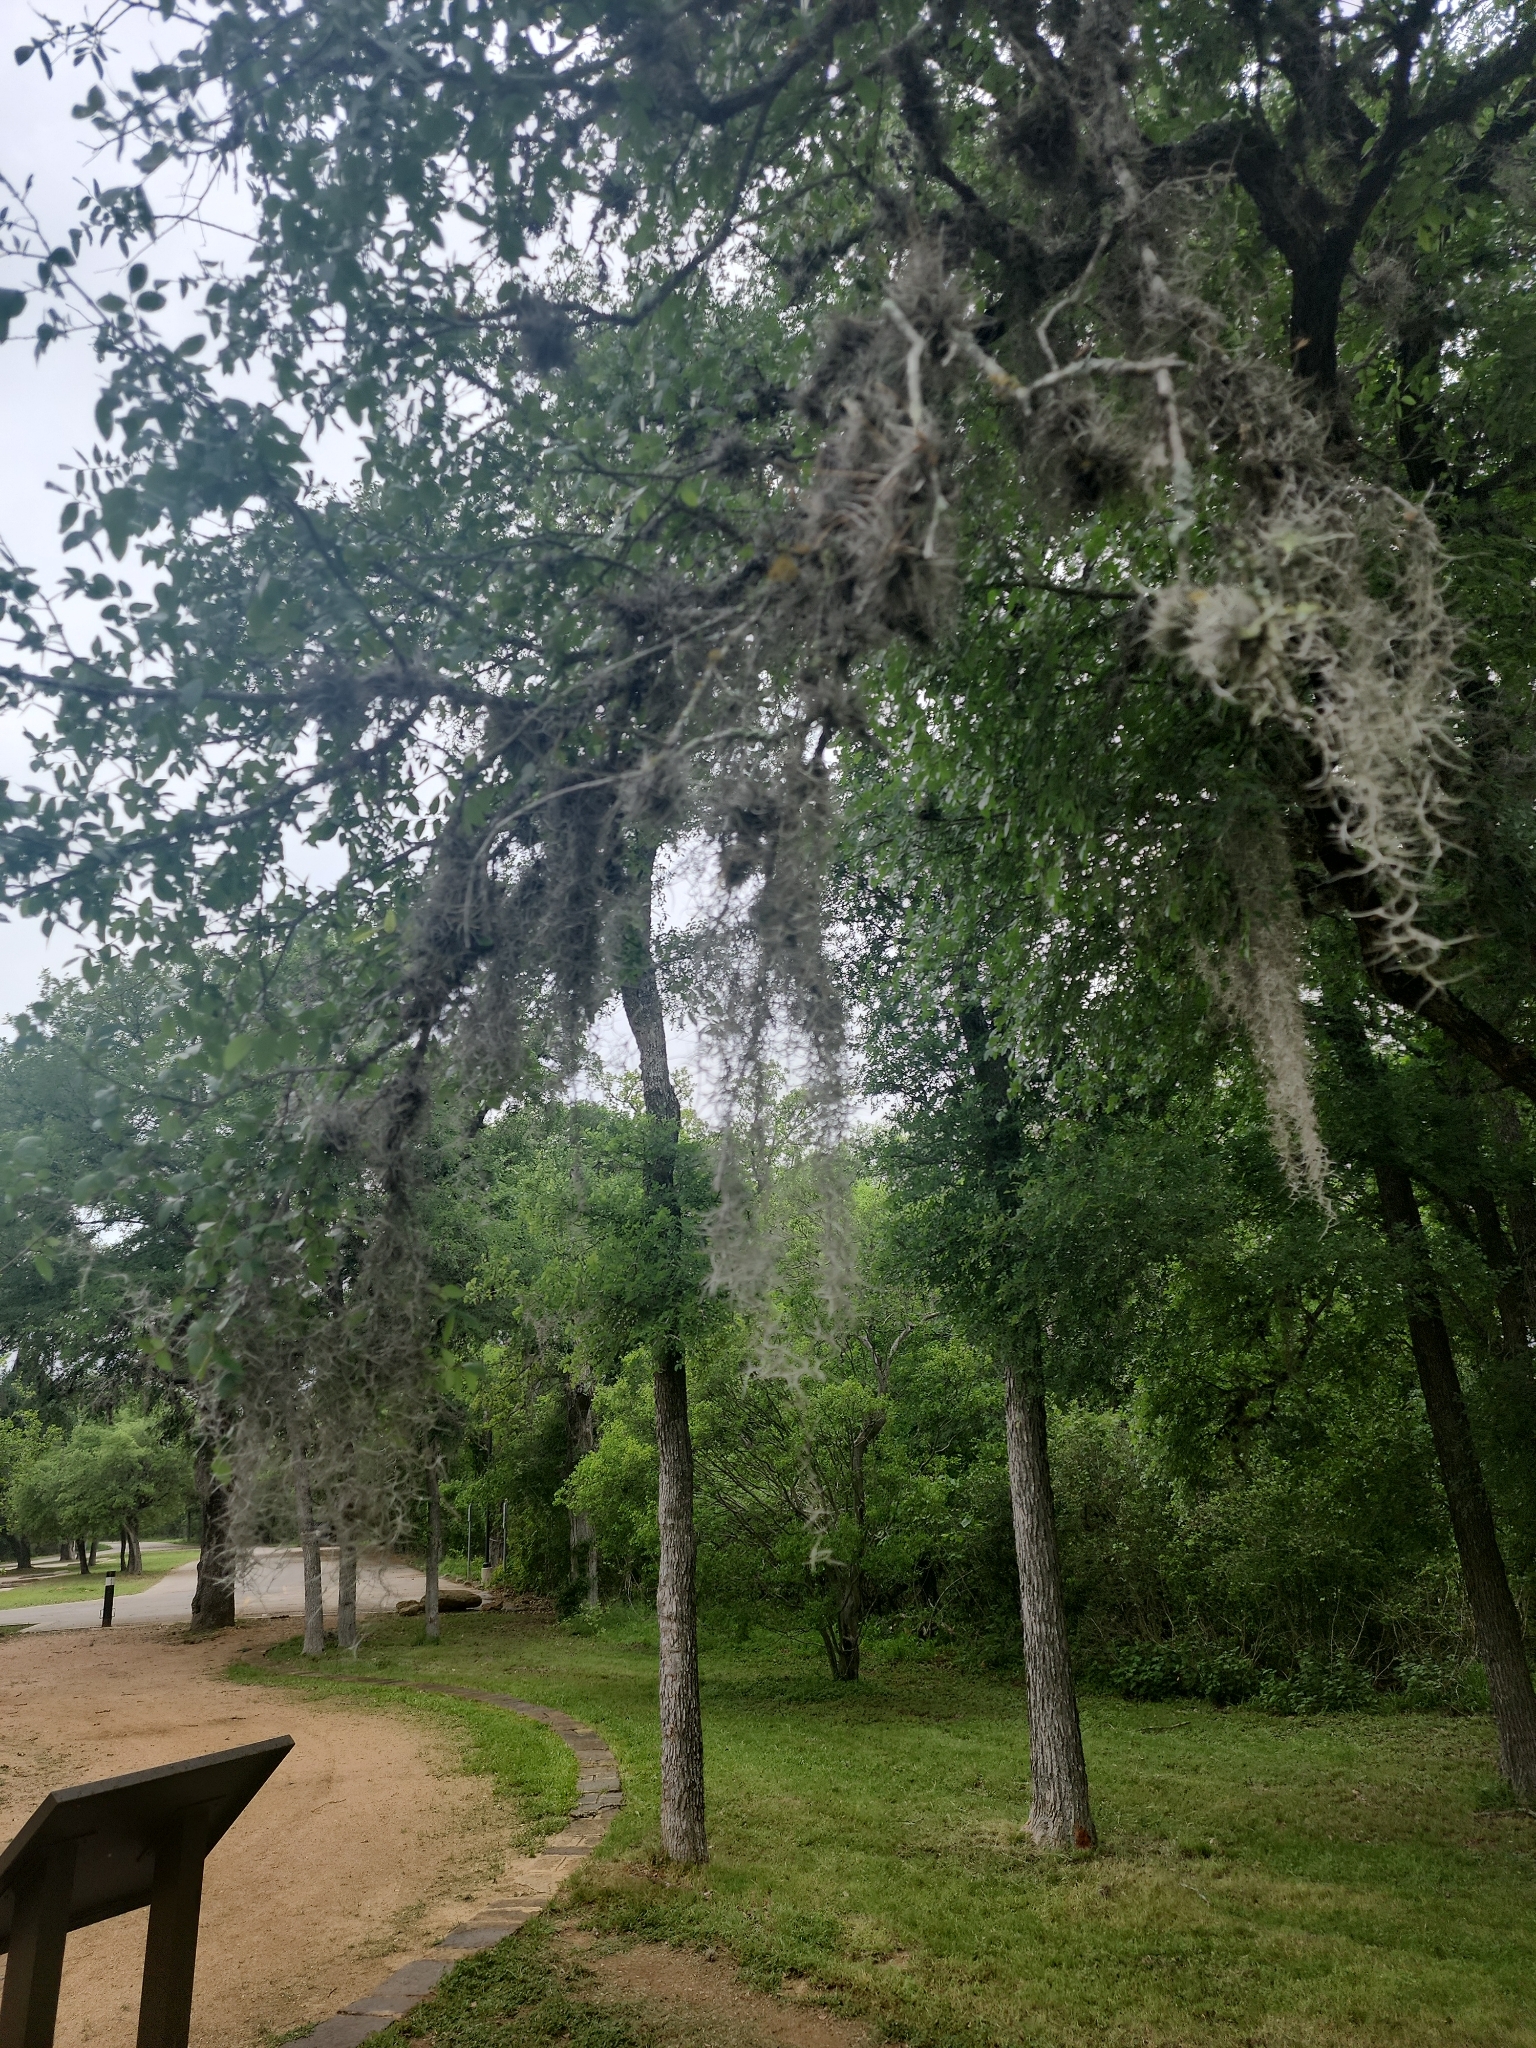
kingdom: Plantae
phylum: Tracheophyta
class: Liliopsida
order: Poales
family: Bromeliaceae
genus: Tillandsia
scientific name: Tillandsia usneoides
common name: Spanish moss
